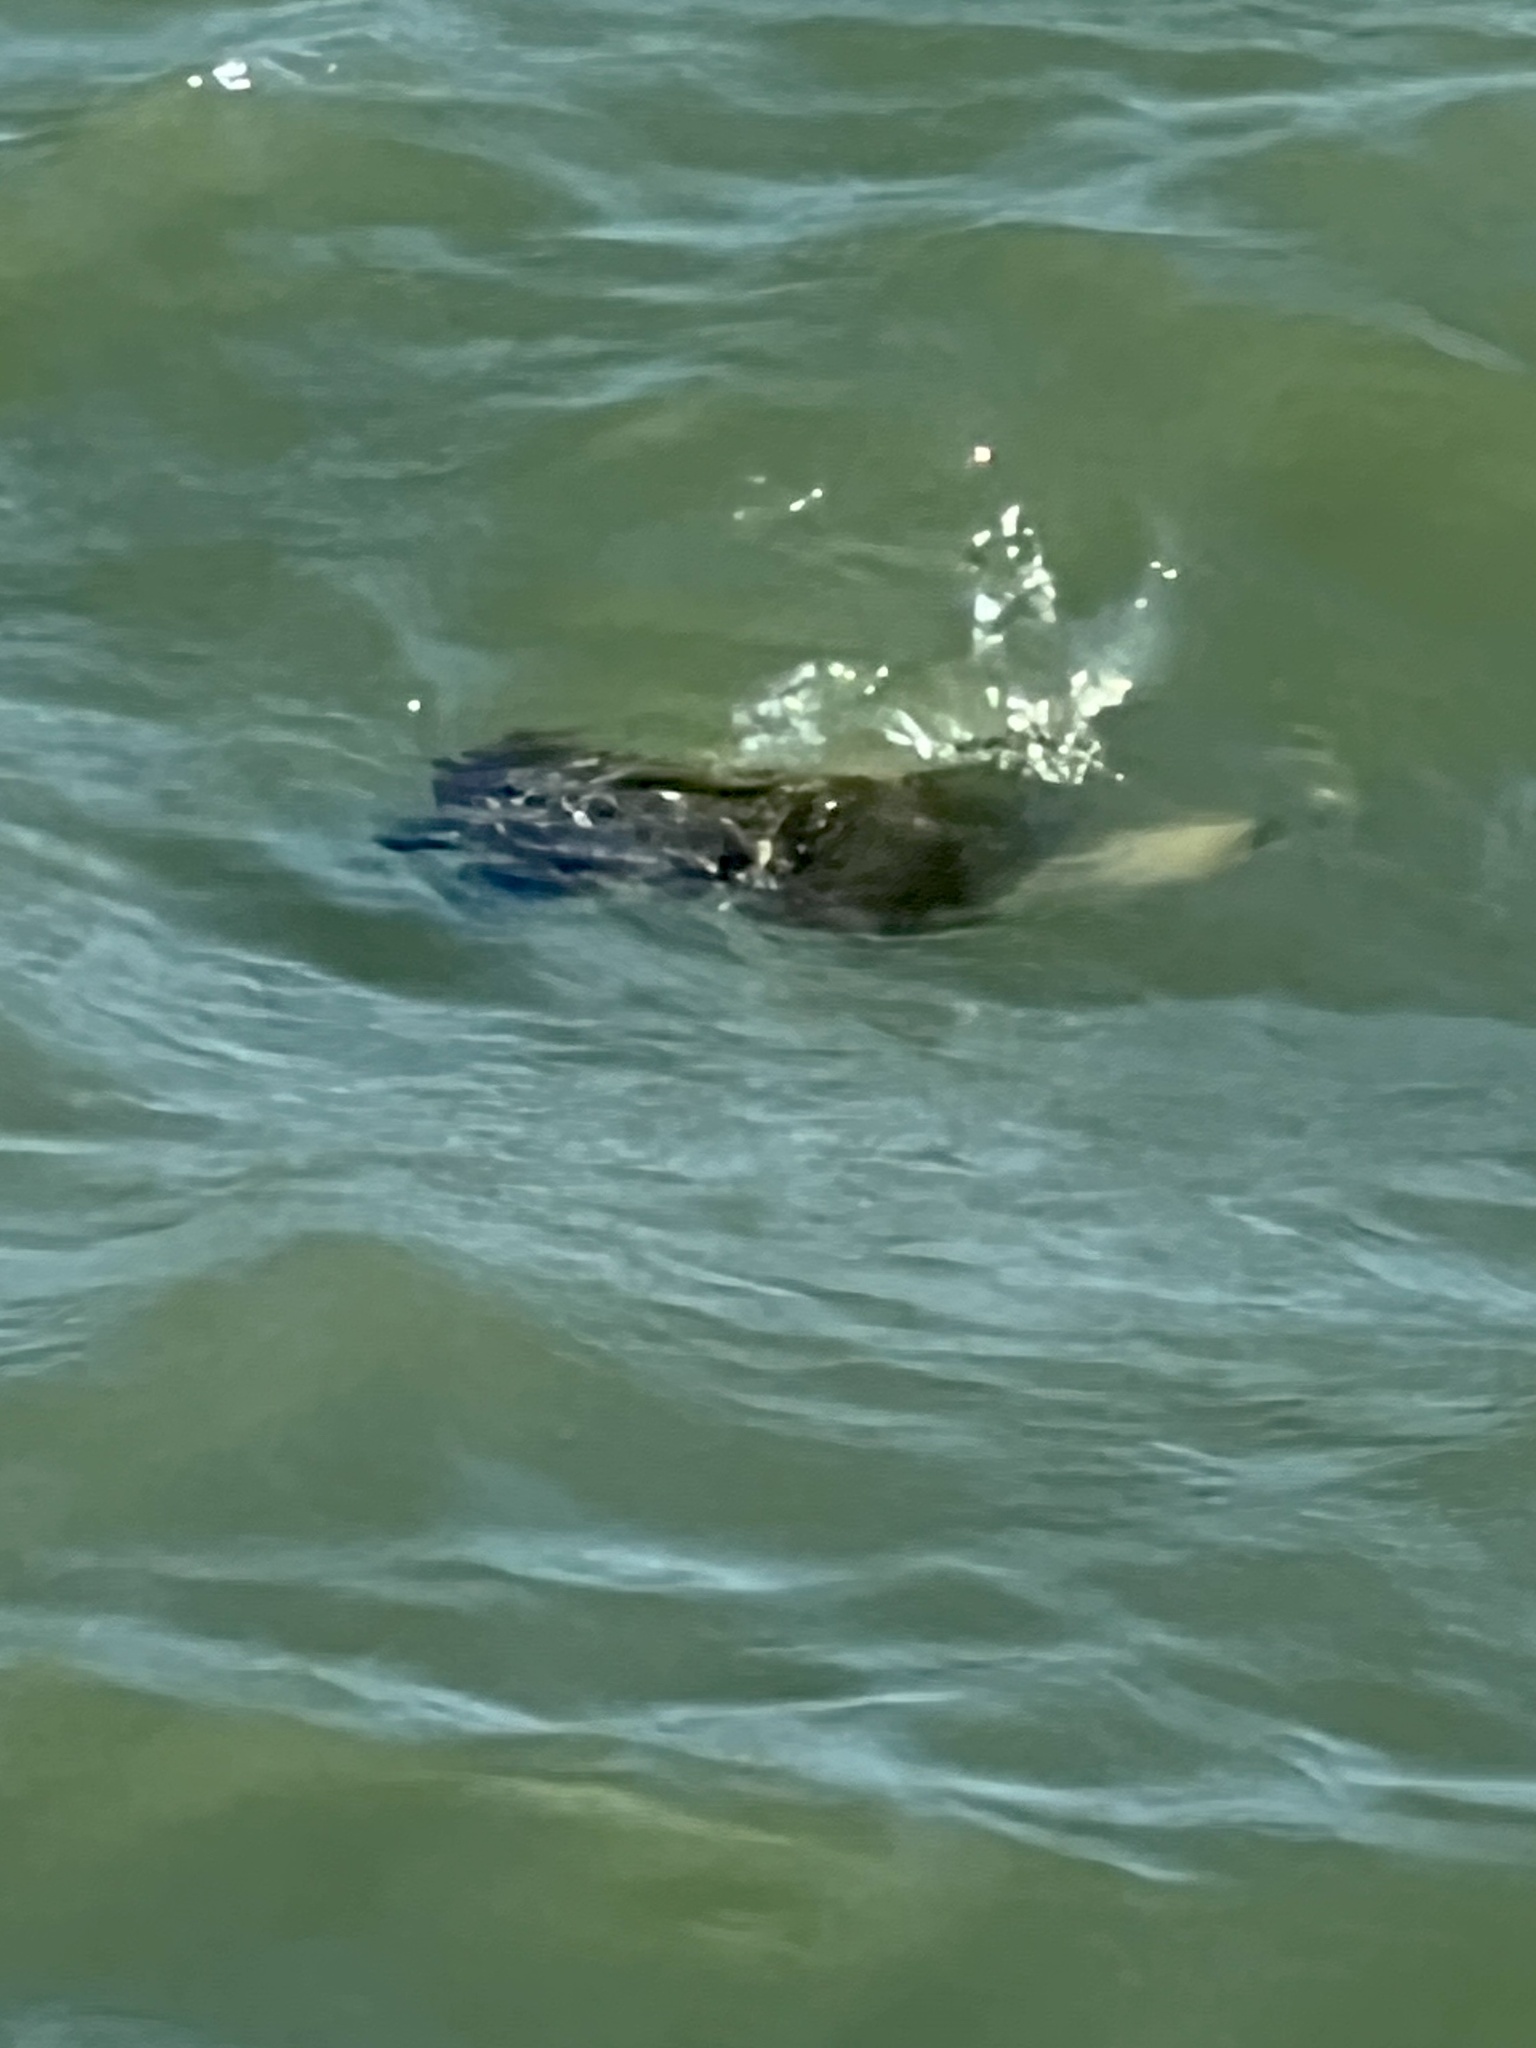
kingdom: Animalia
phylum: Chordata
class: Testudines
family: Cheloniidae
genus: Chelonia
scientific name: Chelonia mydas
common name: Green turtle
